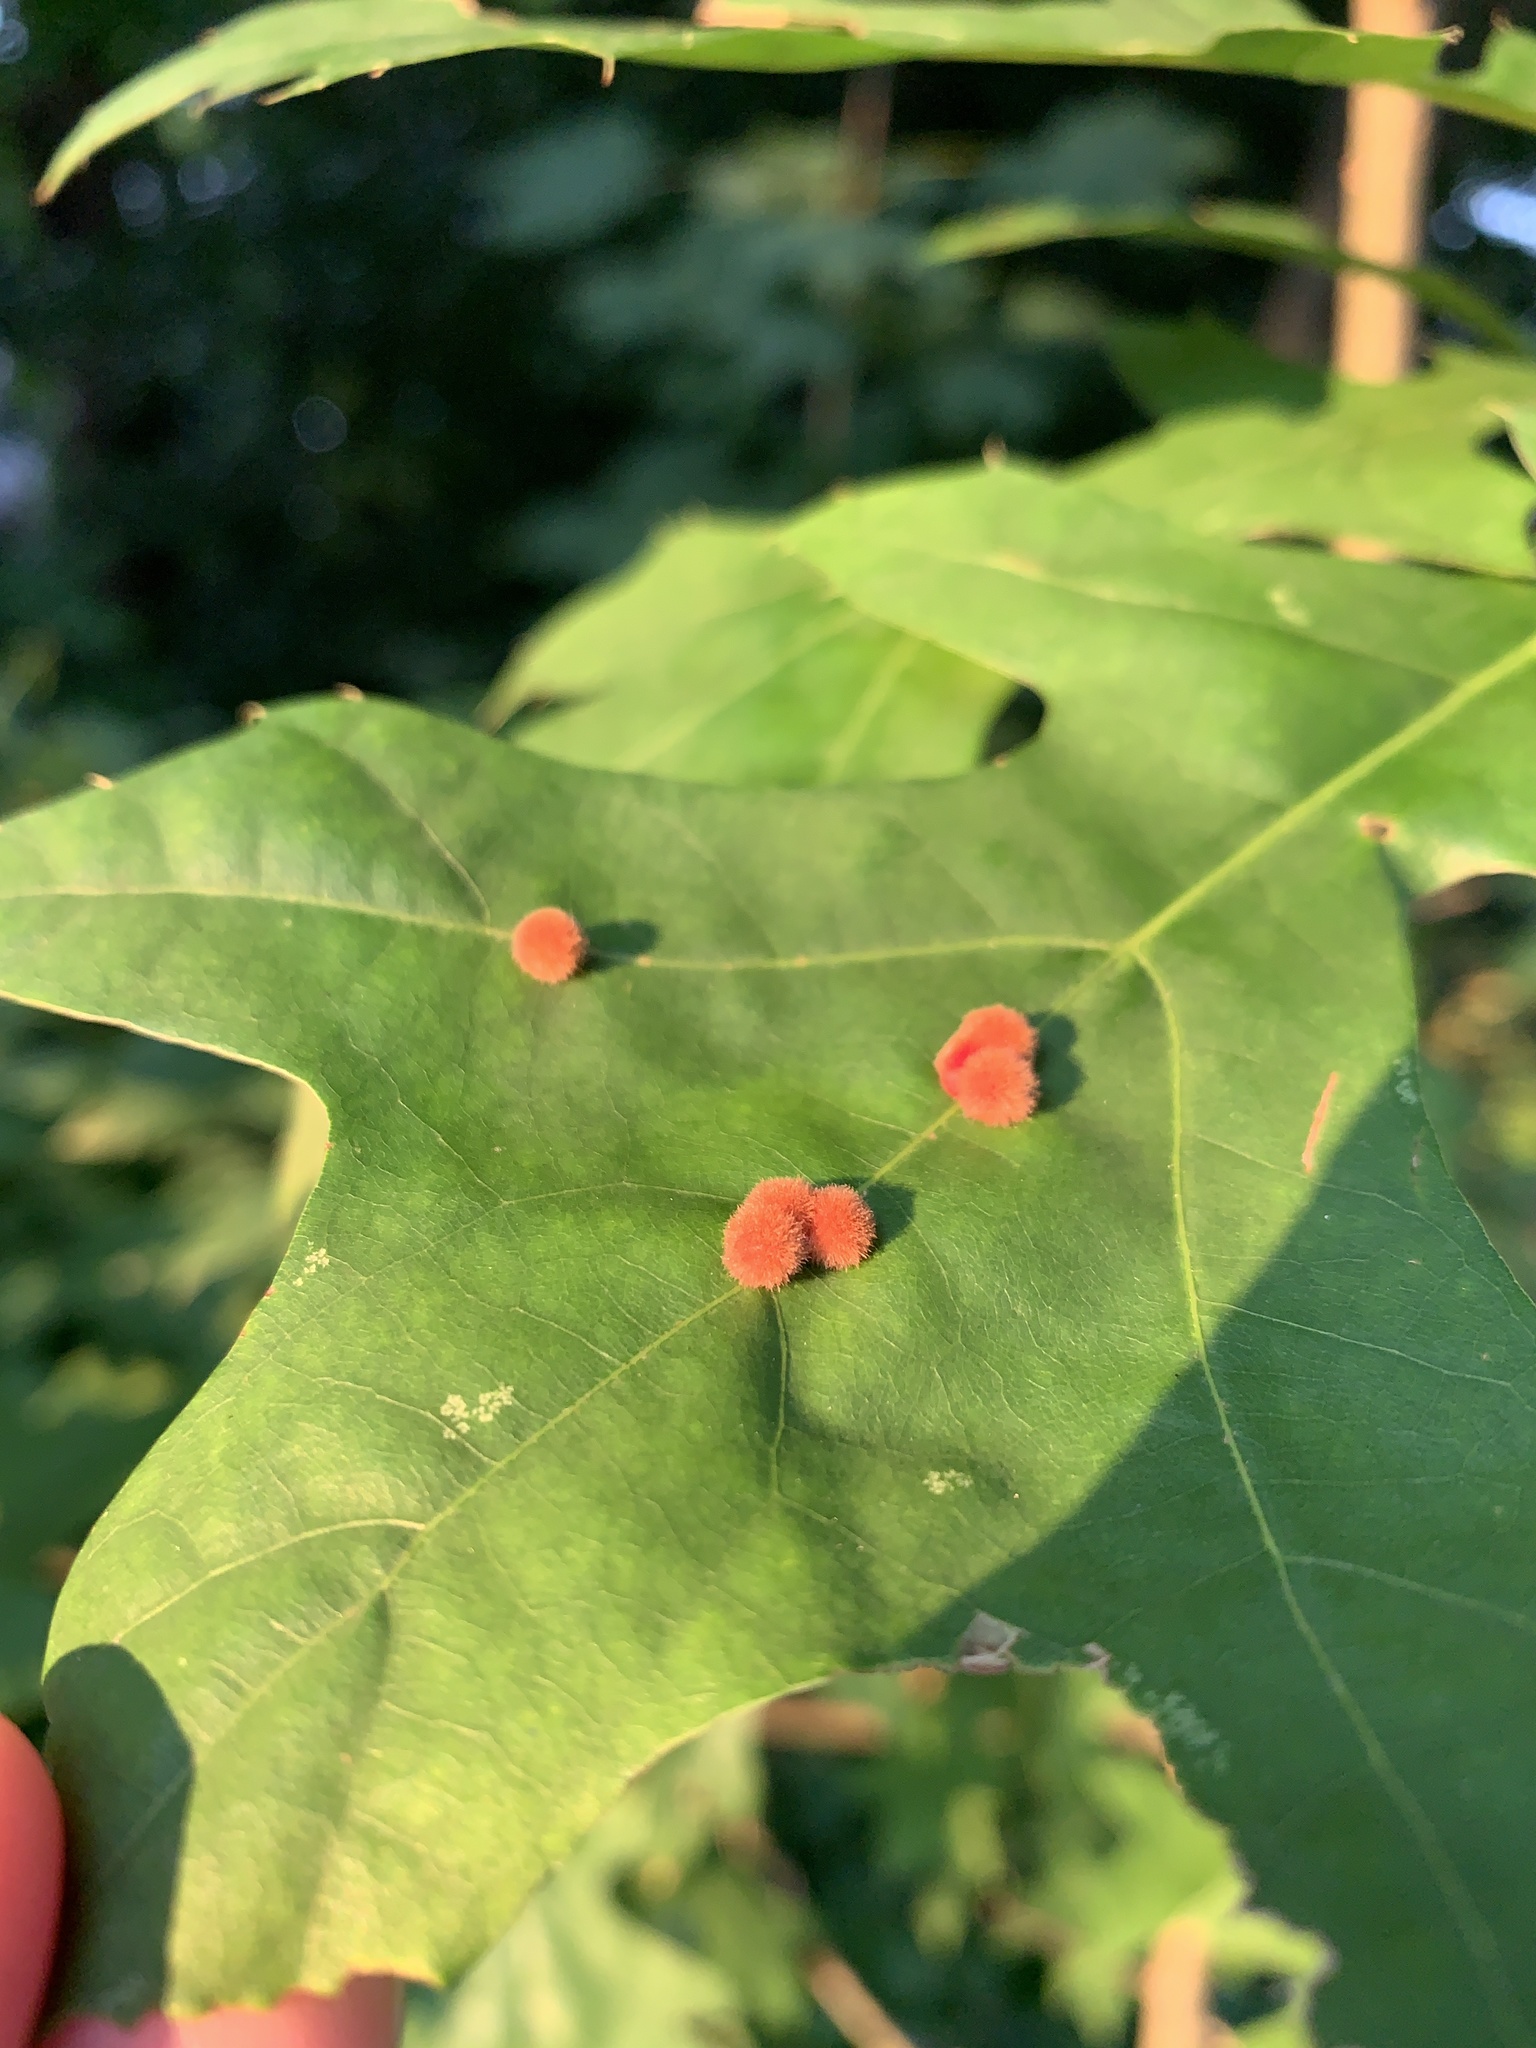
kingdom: Animalia
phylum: Arthropoda
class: Insecta
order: Hymenoptera
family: Cynipidae
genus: Callirhytis
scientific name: Callirhytis
